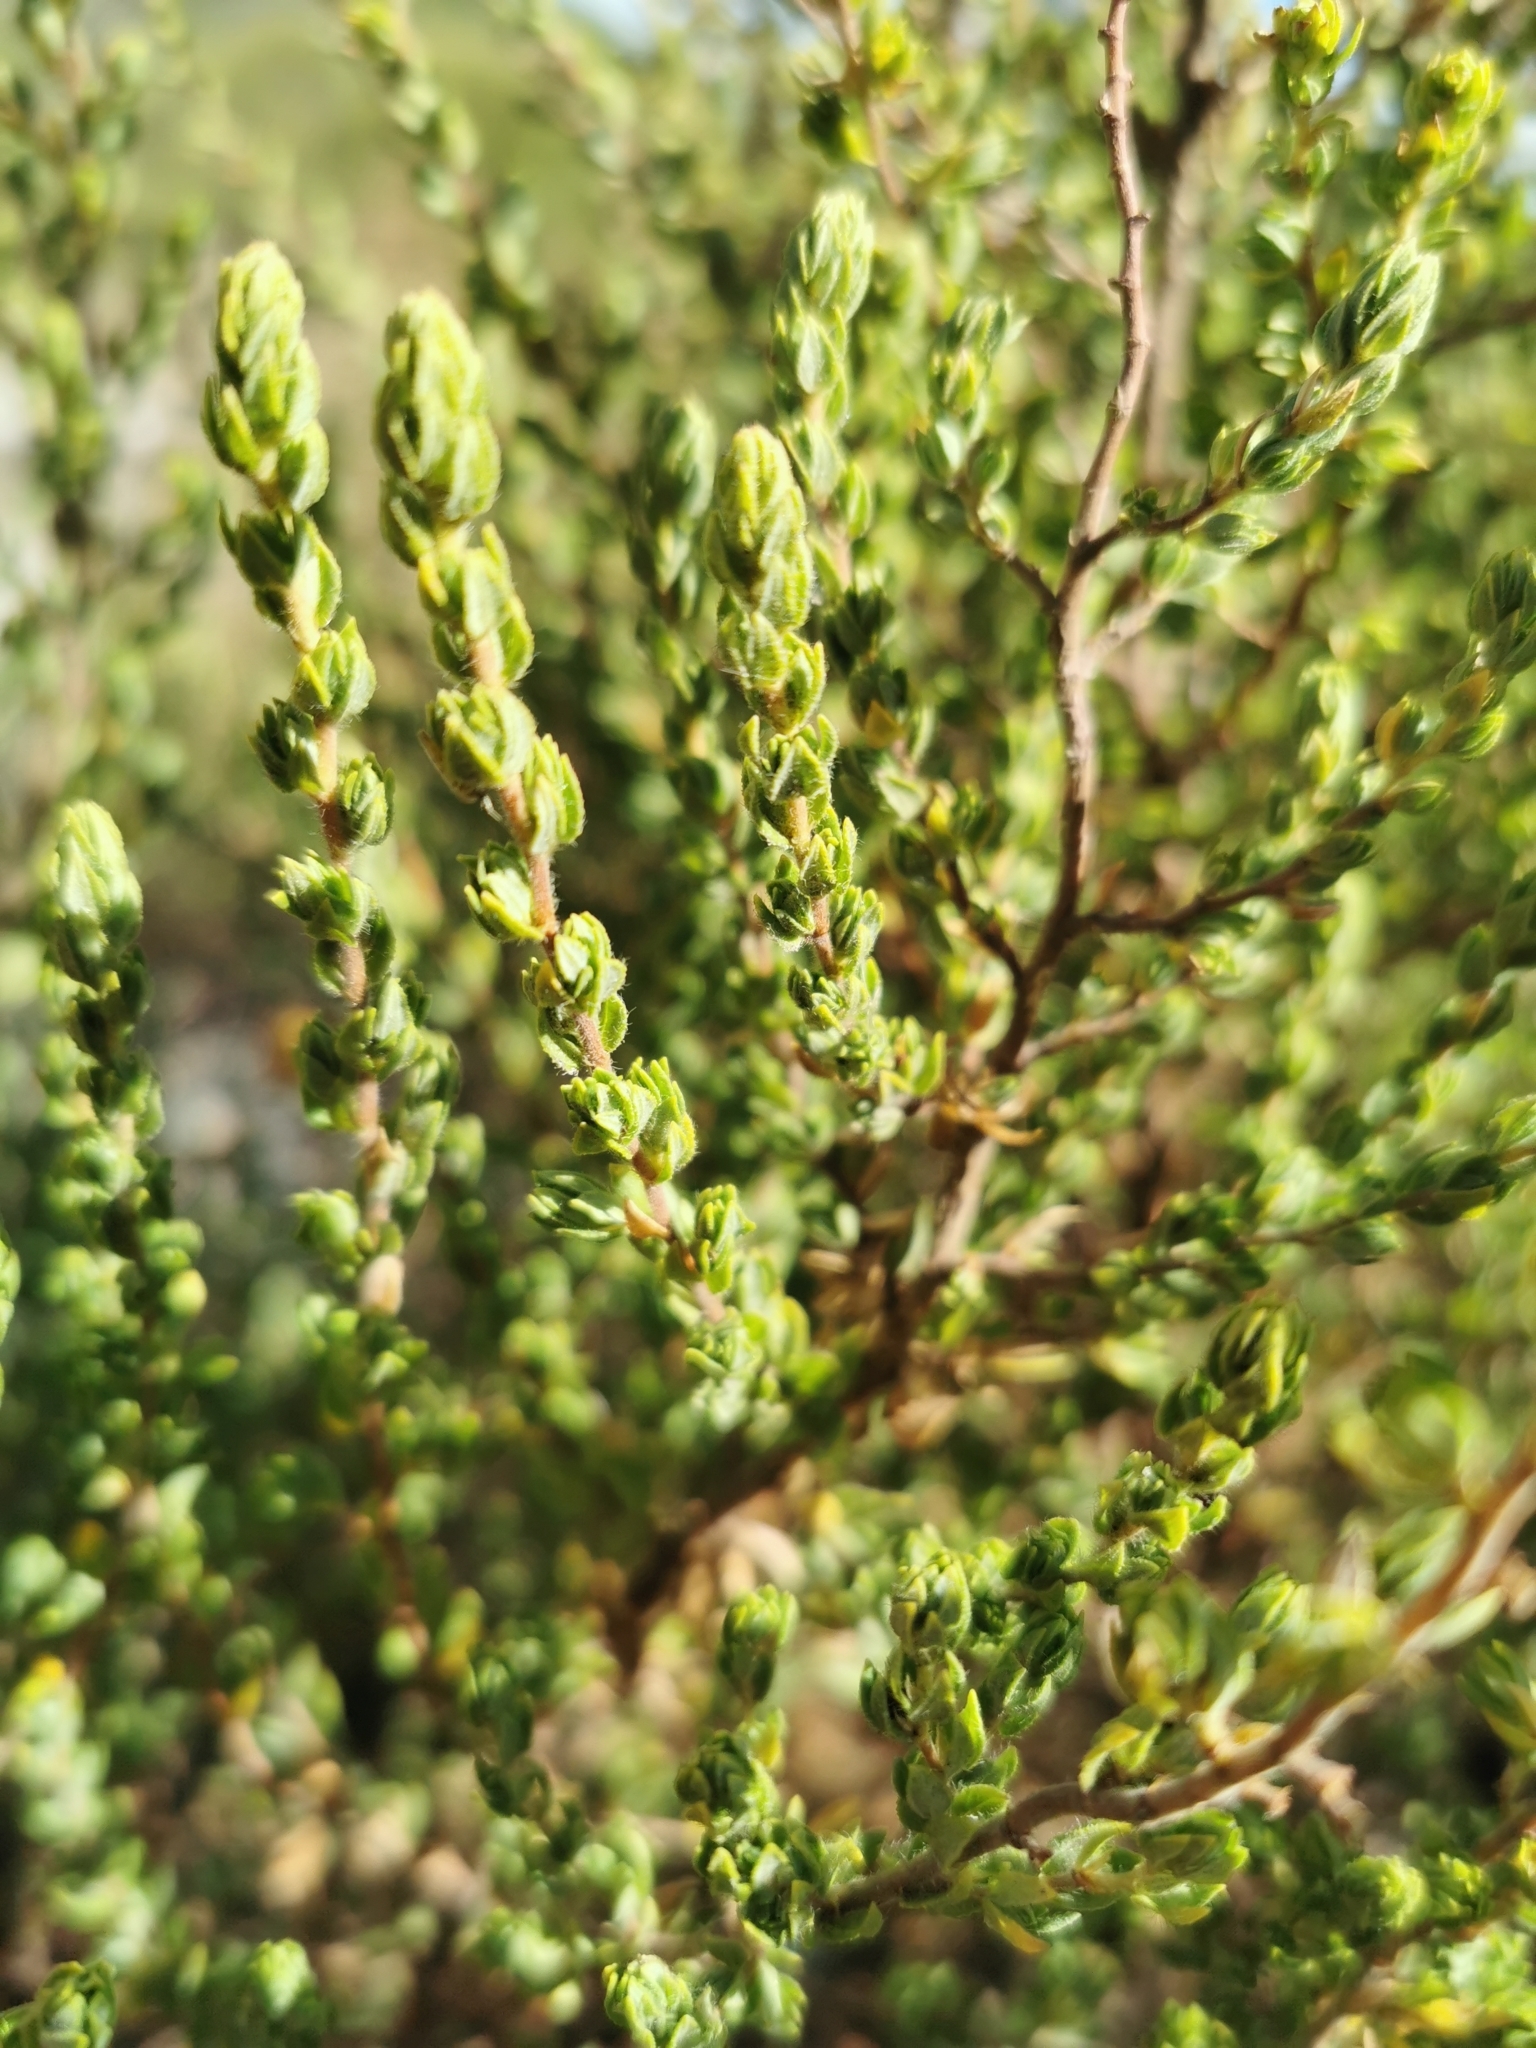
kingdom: Plantae
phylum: Tracheophyta
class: Magnoliopsida
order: Rosales
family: Rosaceae
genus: Cliffortia
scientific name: Cliffortia falcata
